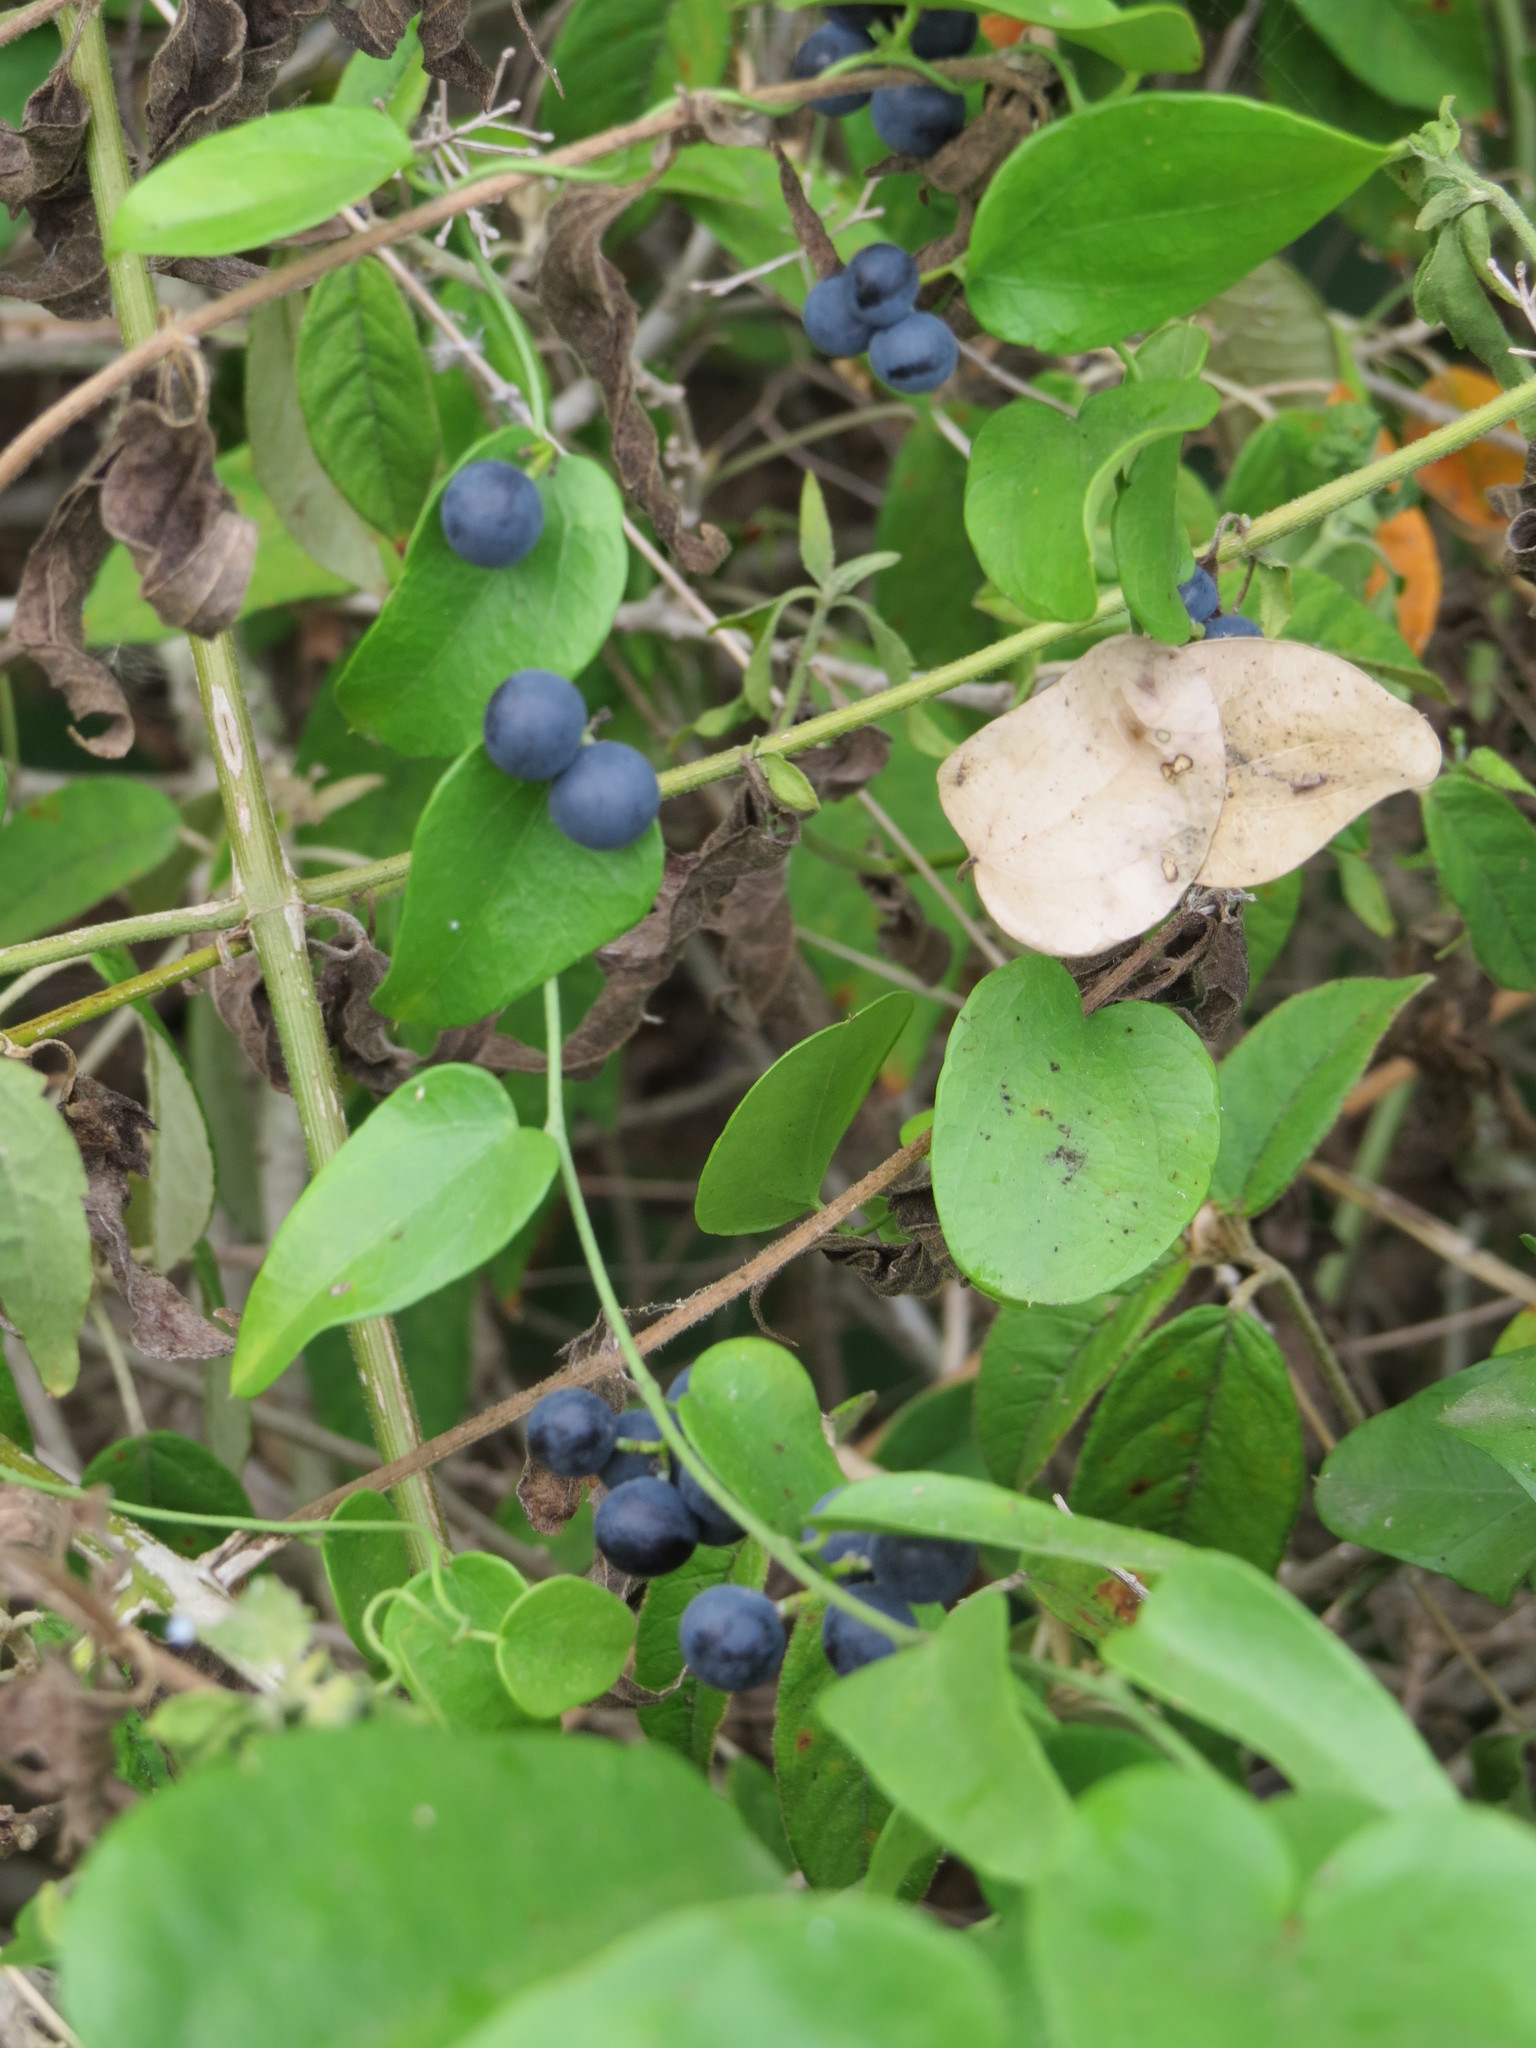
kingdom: Plantae
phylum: Tracheophyta
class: Magnoliopsida
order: Ranunculales
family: Menispermaceae
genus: Cocculus
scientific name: Cocculus diversifolius
